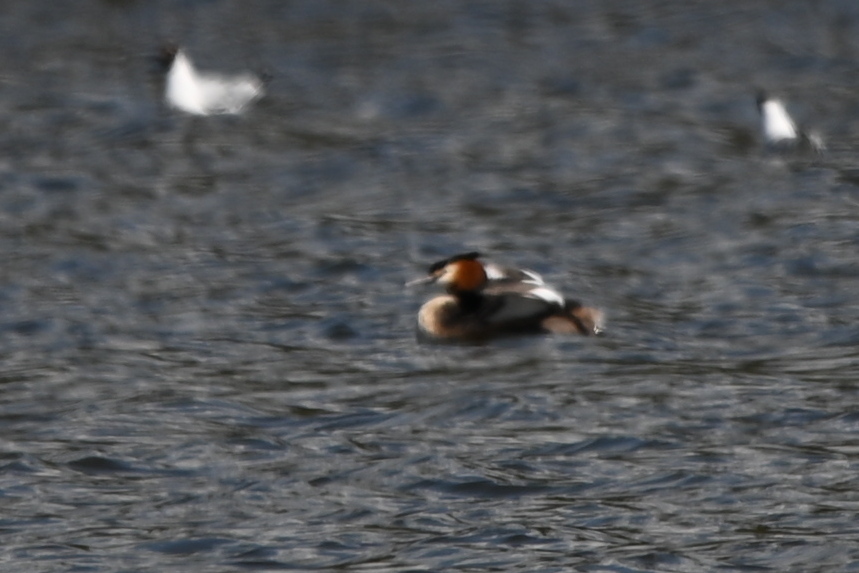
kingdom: Animalia
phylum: Chordata
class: Aves
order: Podicipediformes
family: Podicipedidae
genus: Podiceps
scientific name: Podiceps cristatus
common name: Great crested grebe
